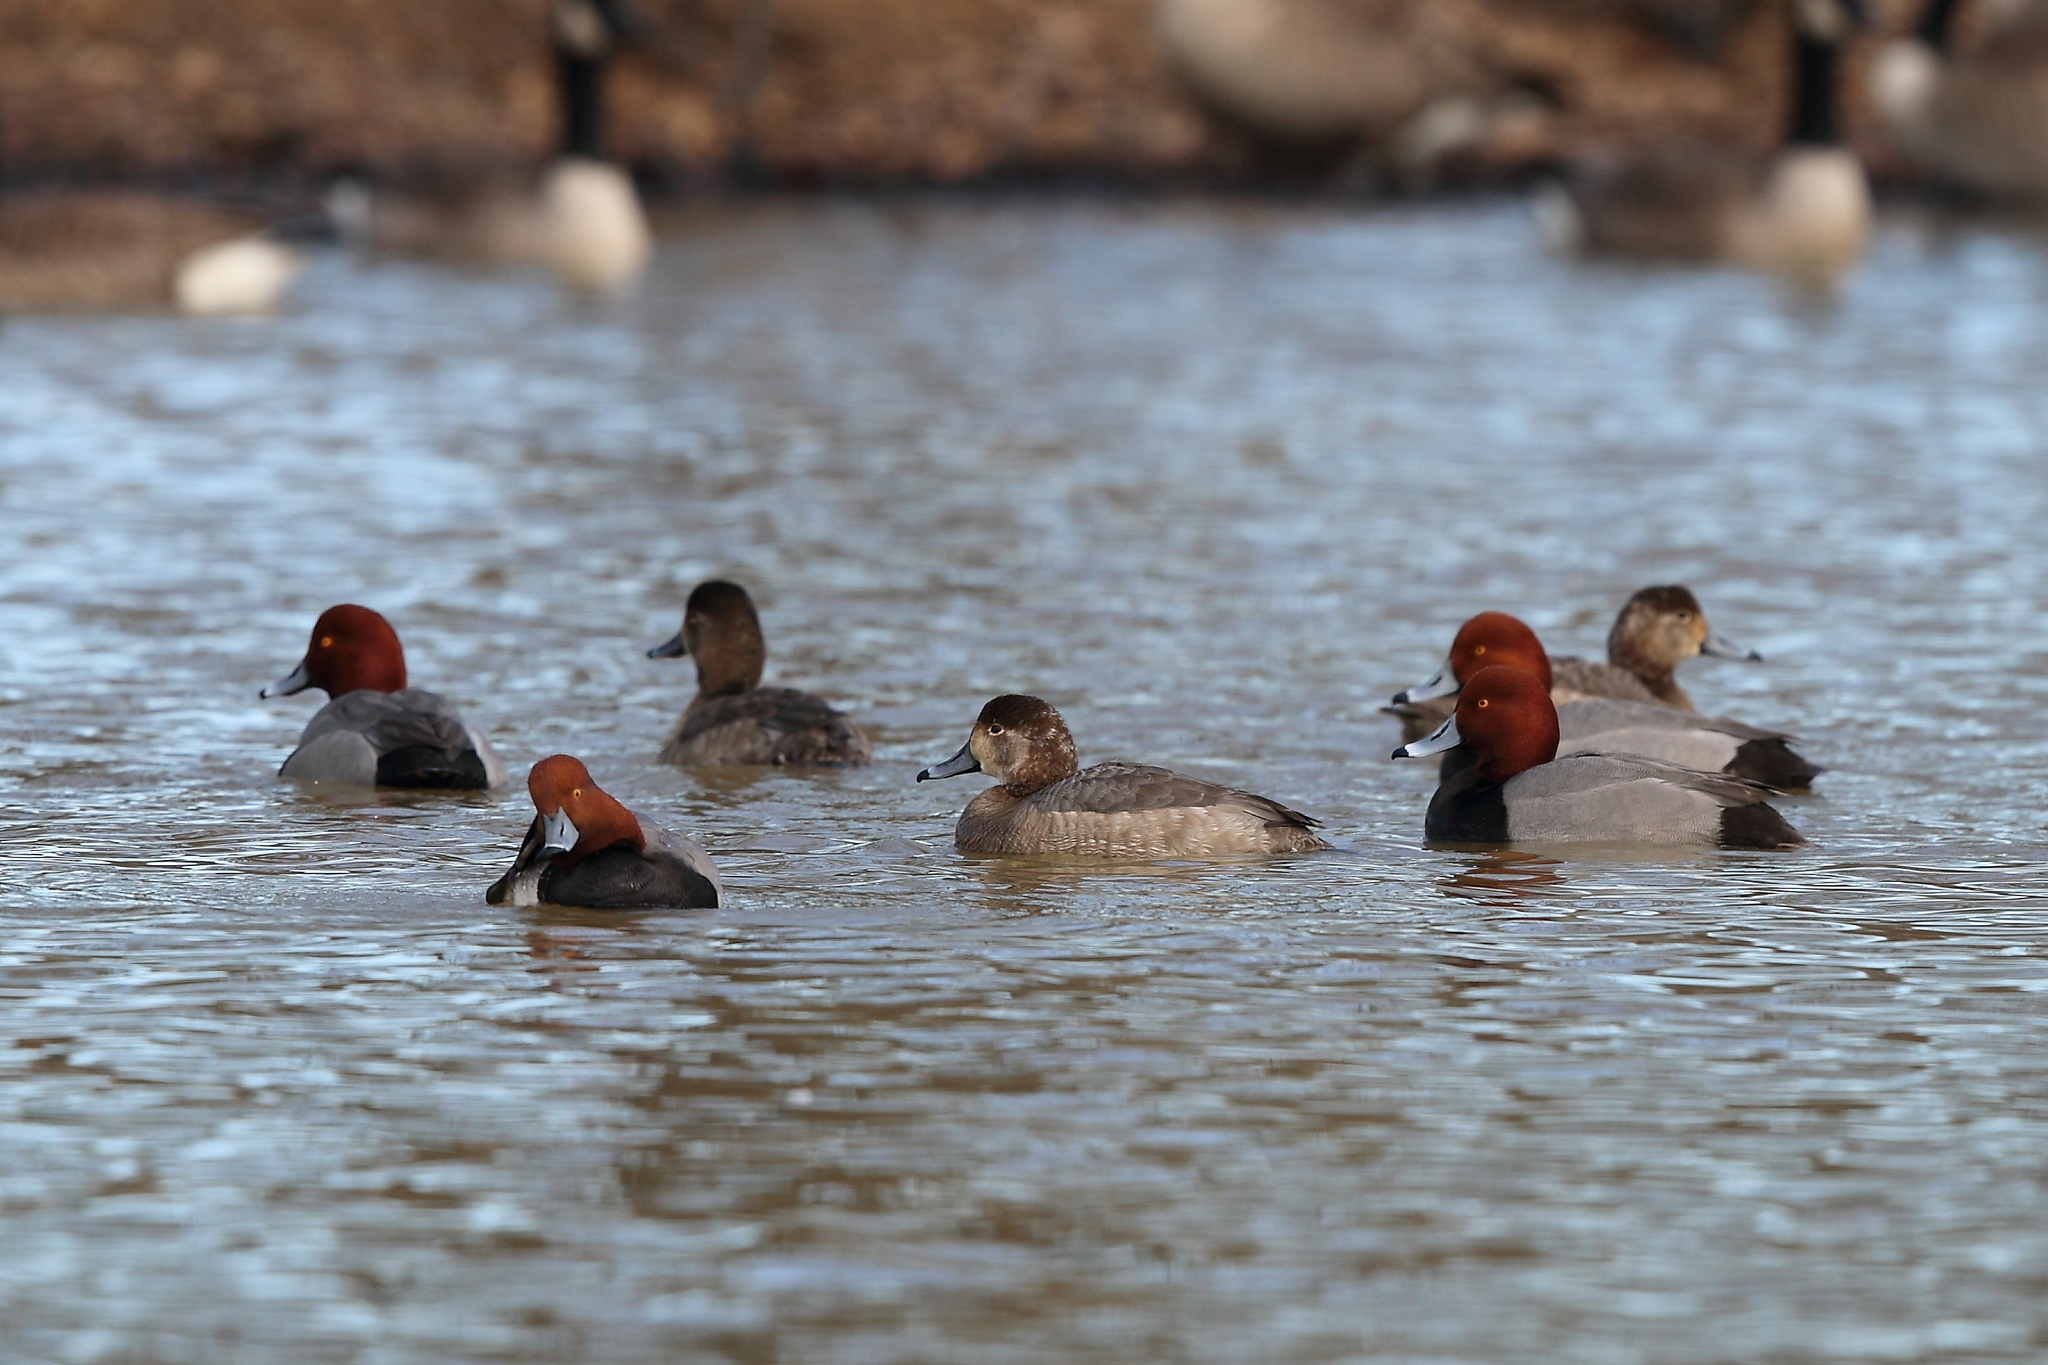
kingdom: Animalia
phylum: Chordata
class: Aves
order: Anseriformes
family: Anatidae
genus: Aythya
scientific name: Aythya americana
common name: Redhead
